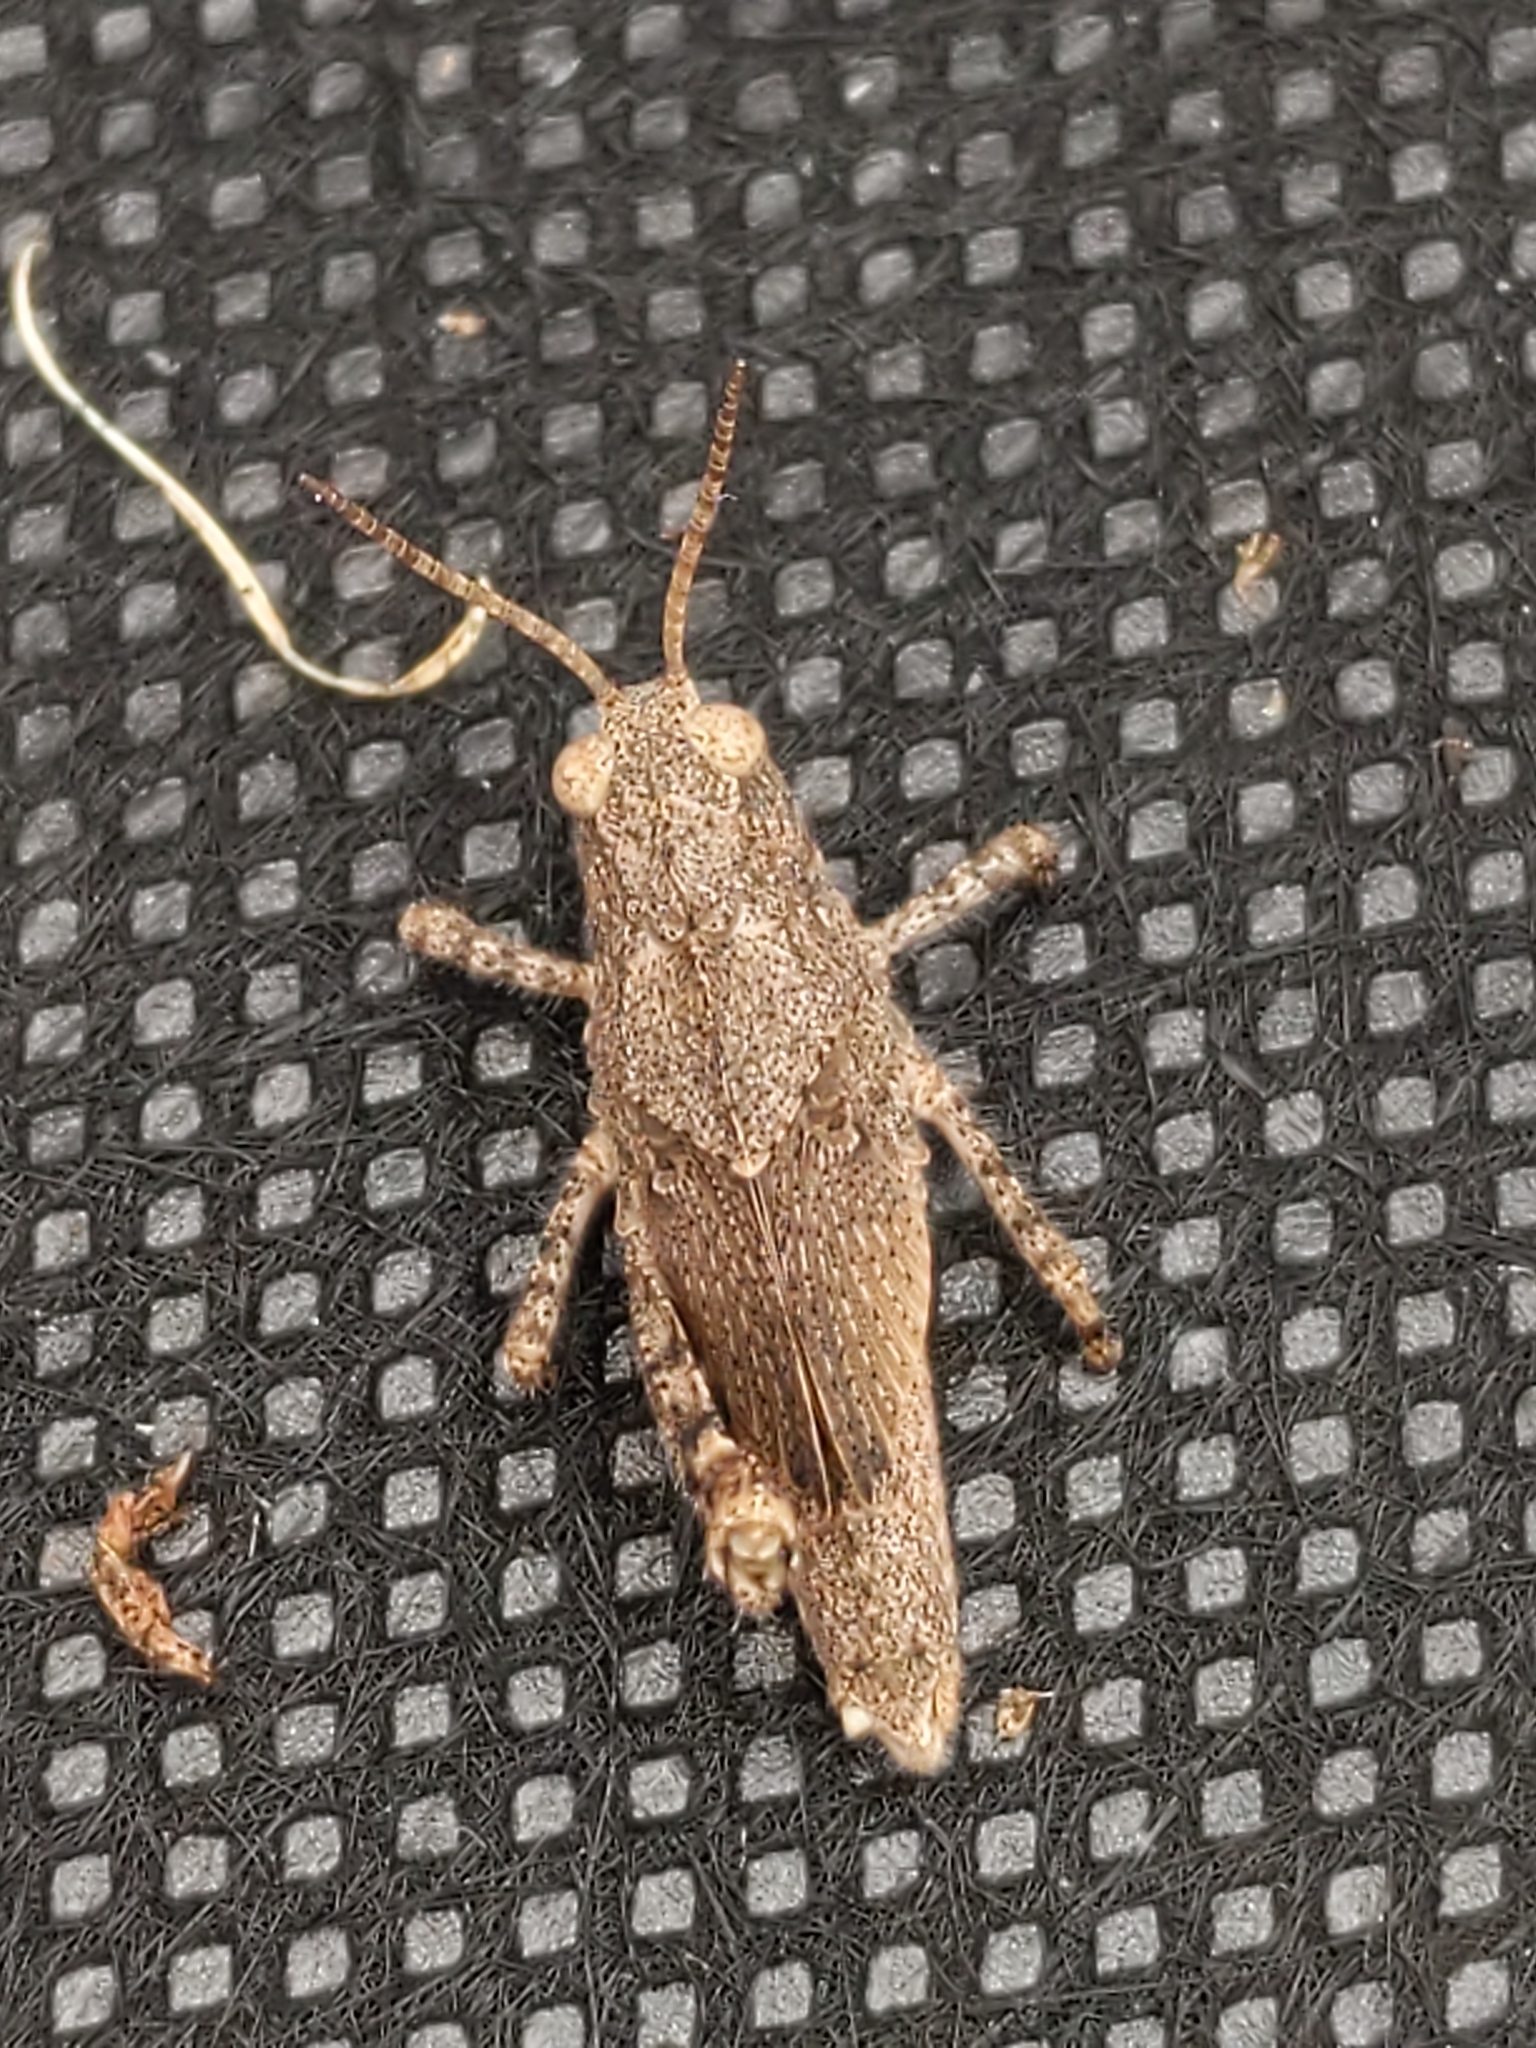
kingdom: Animalia
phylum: Arthropoda
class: Insecta
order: Orthoptera
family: Acrididae
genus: Dissosteira
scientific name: Dissosteira carolina
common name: Carolina grasshopper
